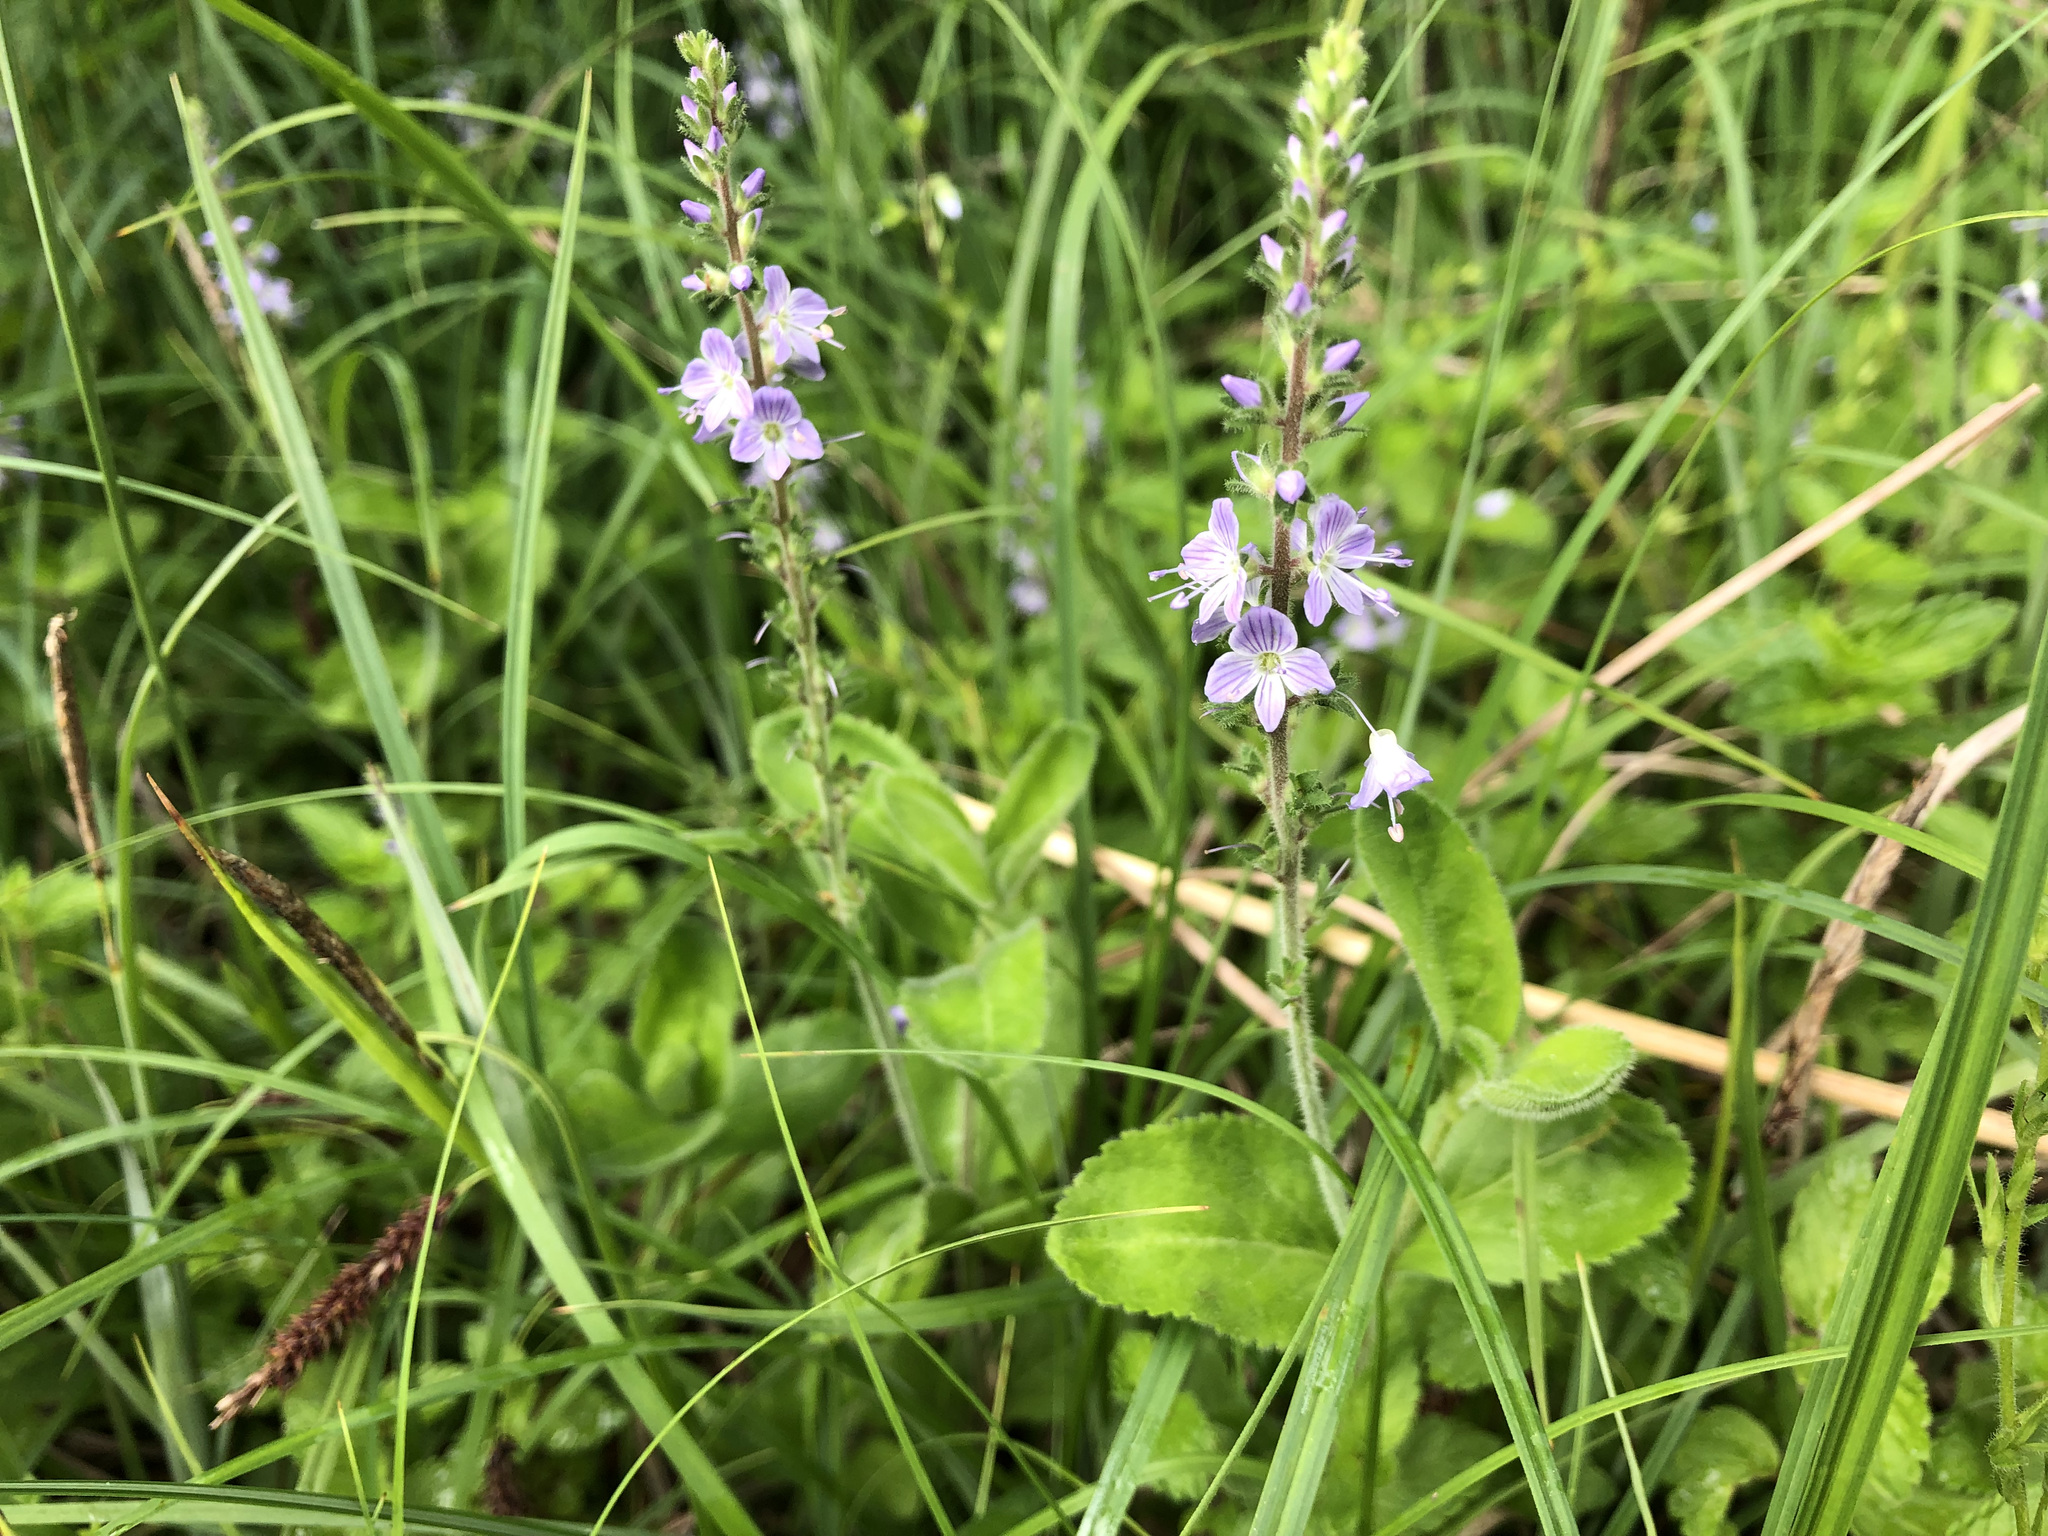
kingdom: Plantae
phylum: Tracheophyta
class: Magnoliopsida
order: Lamiales
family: Plantaginaceae
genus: Veronica
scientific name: Veronica officinalis
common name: Common speedwell
